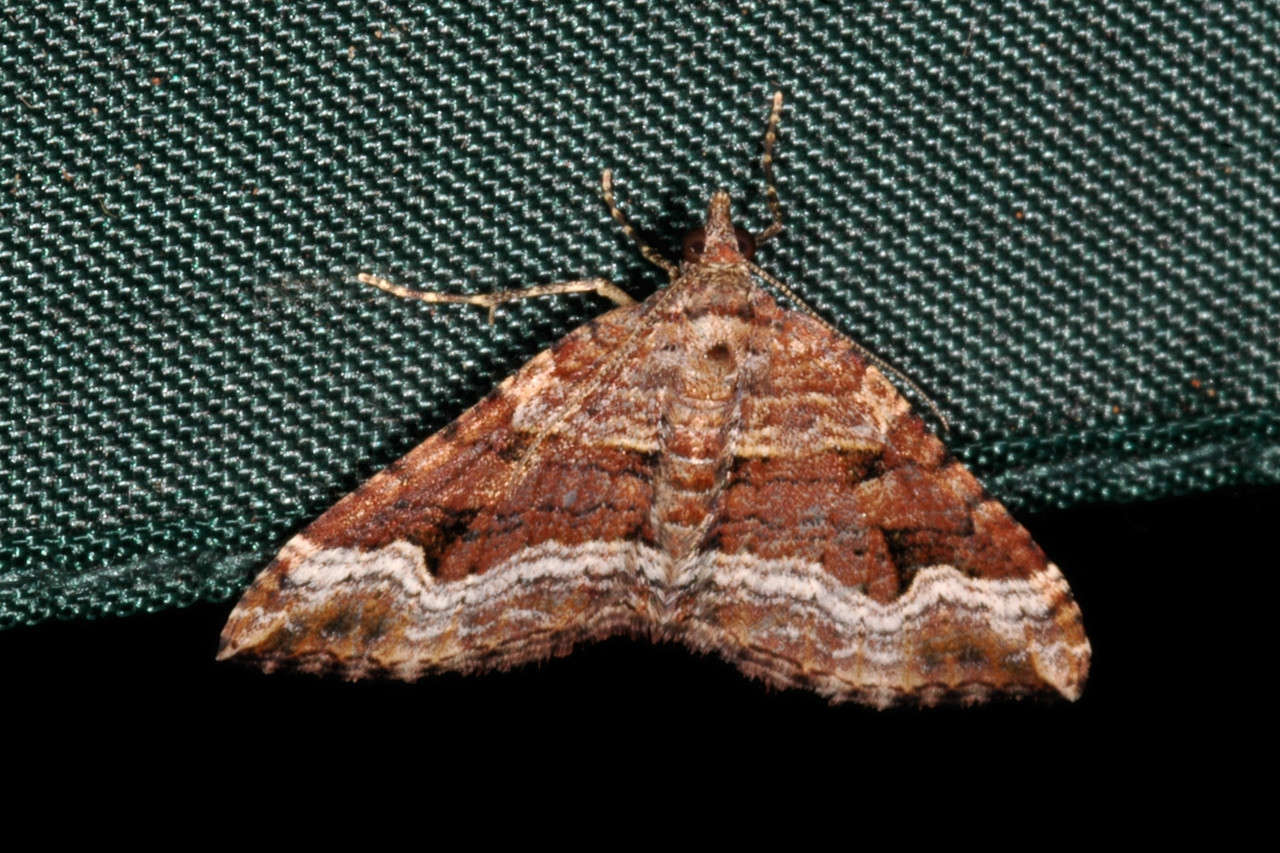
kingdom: Animalia
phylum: Arthropoda
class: Insecta
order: Lepidoptera
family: Geometridae
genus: Epyaxa
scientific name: Epyaxa subidaria
